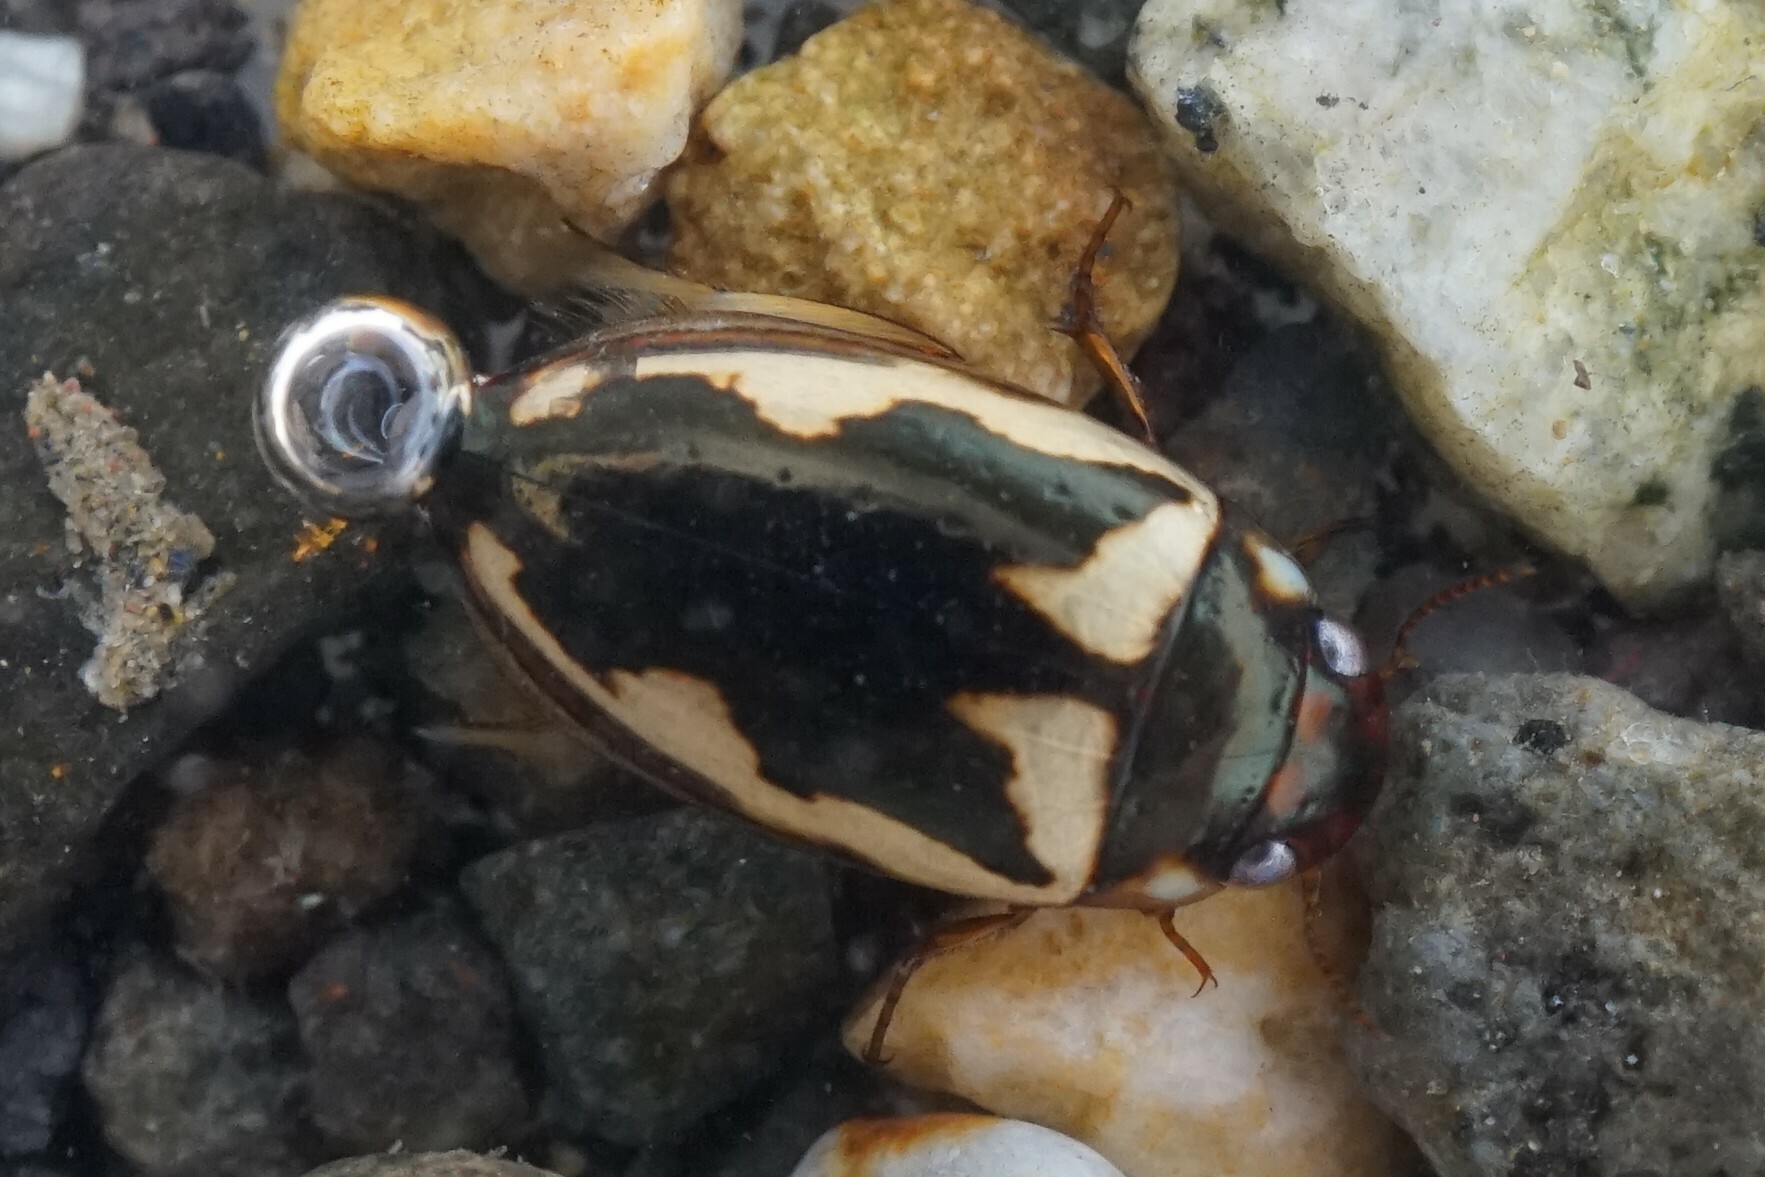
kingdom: Animalia
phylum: Arthropoda
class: Insecta
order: Coleoptera
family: Dytiscidae
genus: Platambus
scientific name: Platambus fimbriatus
